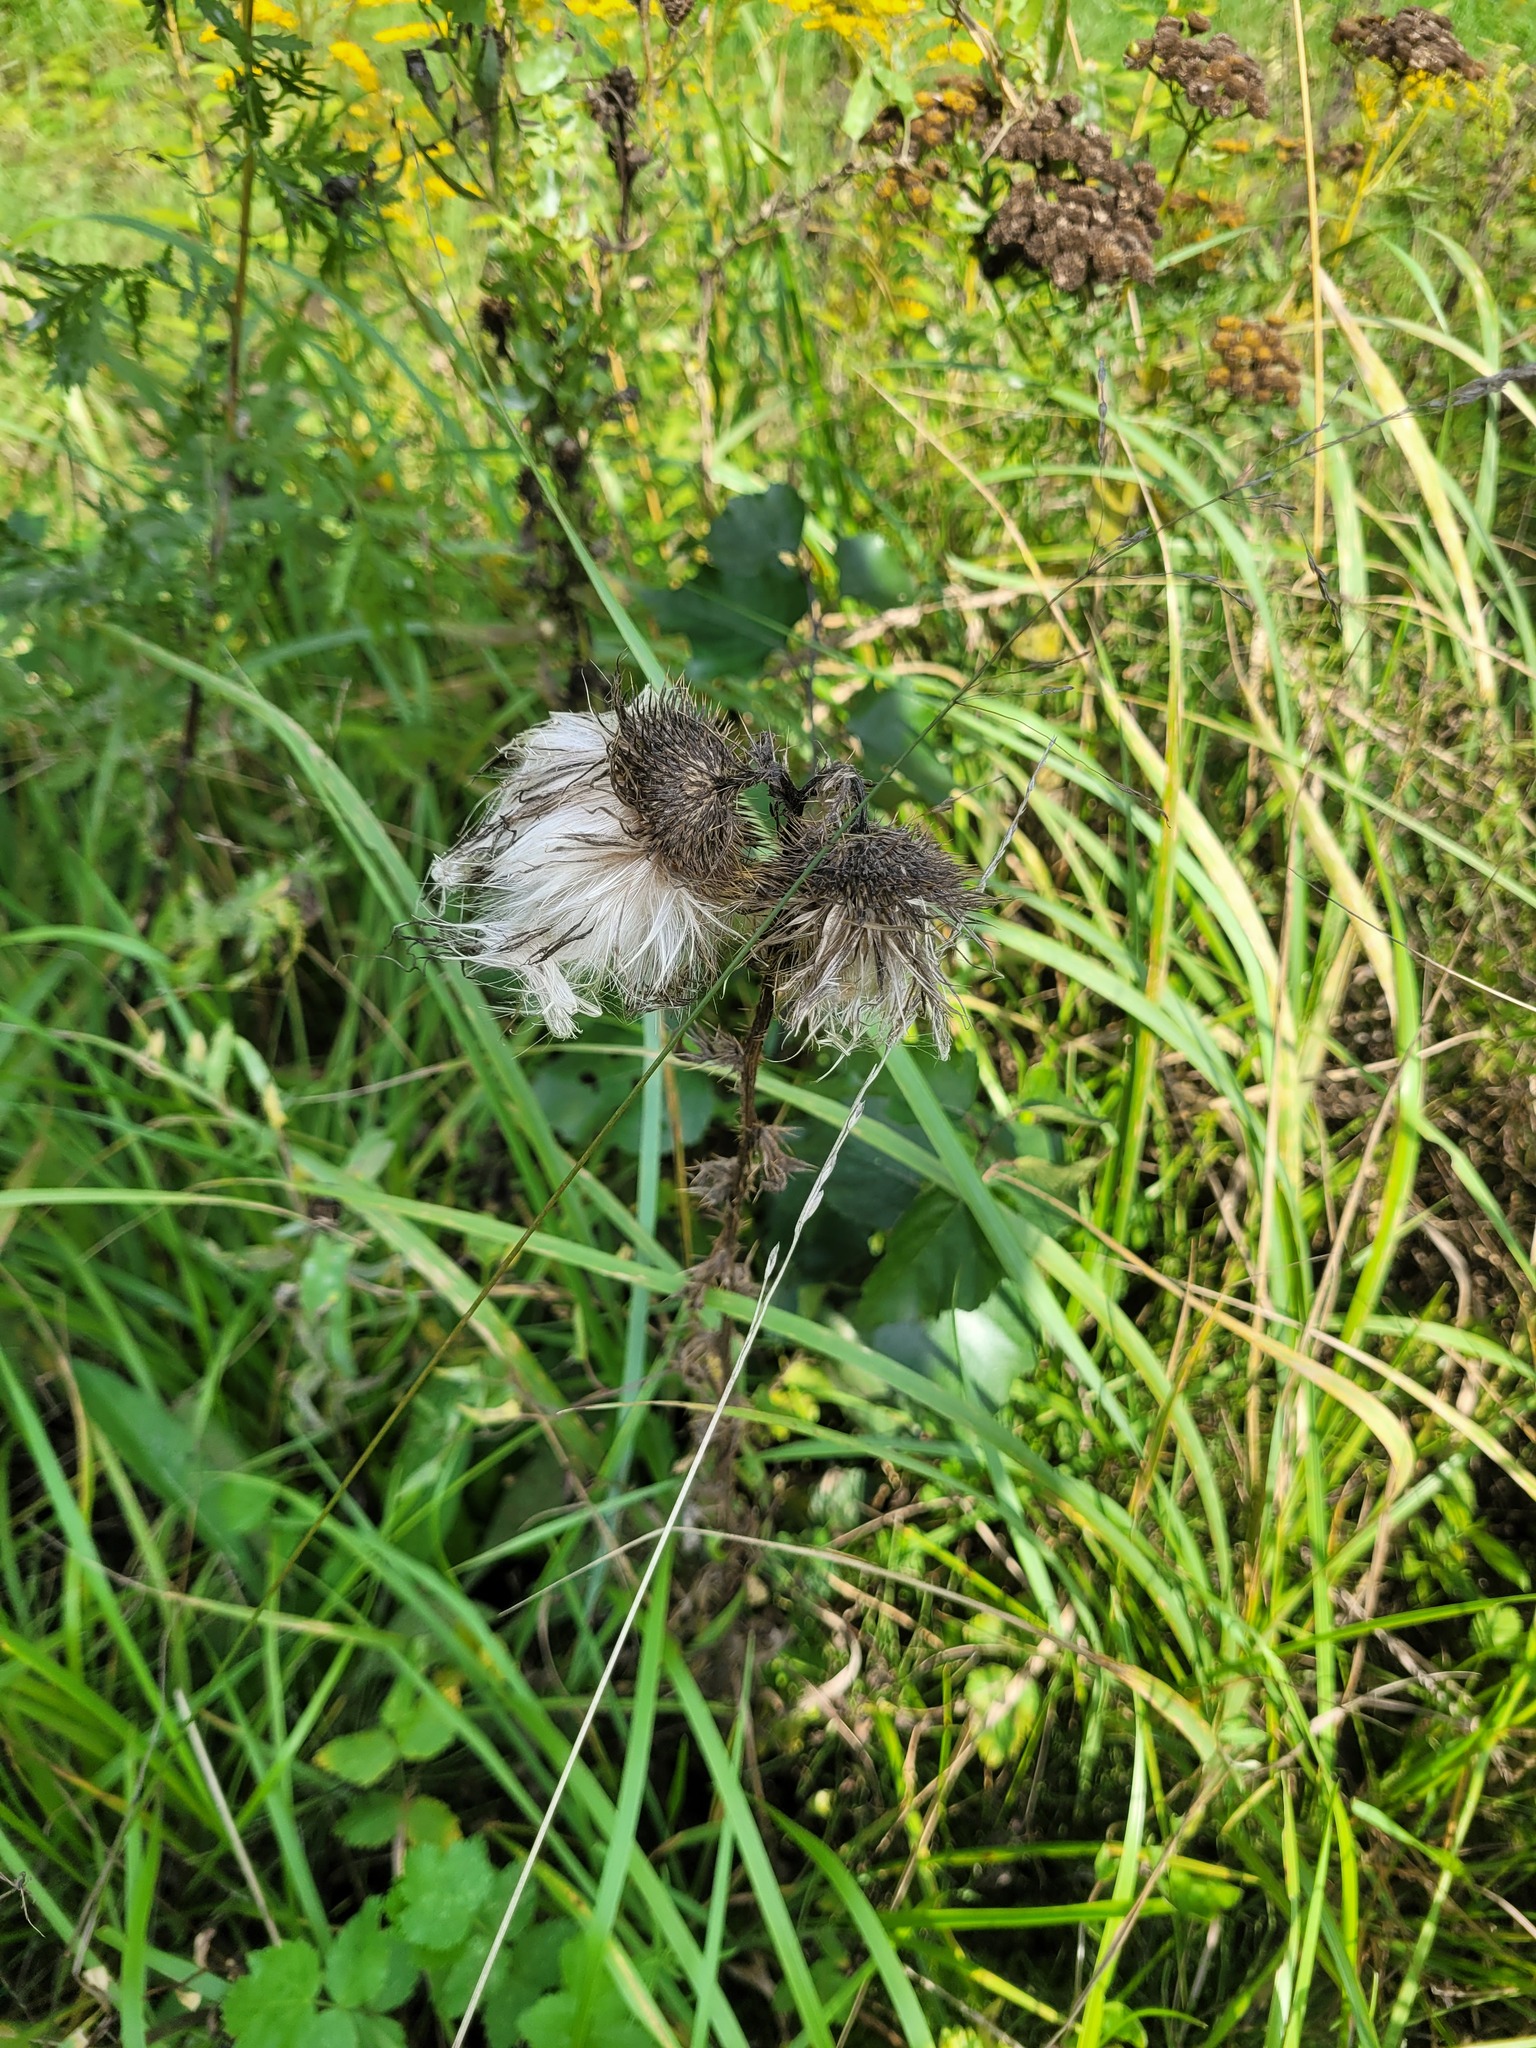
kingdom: Plantae
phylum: Tracheophyta
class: Magnoliopsida
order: Asterales
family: Asteraceae
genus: Cirsium
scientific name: Cirsium vulgare
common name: Bull thistle
